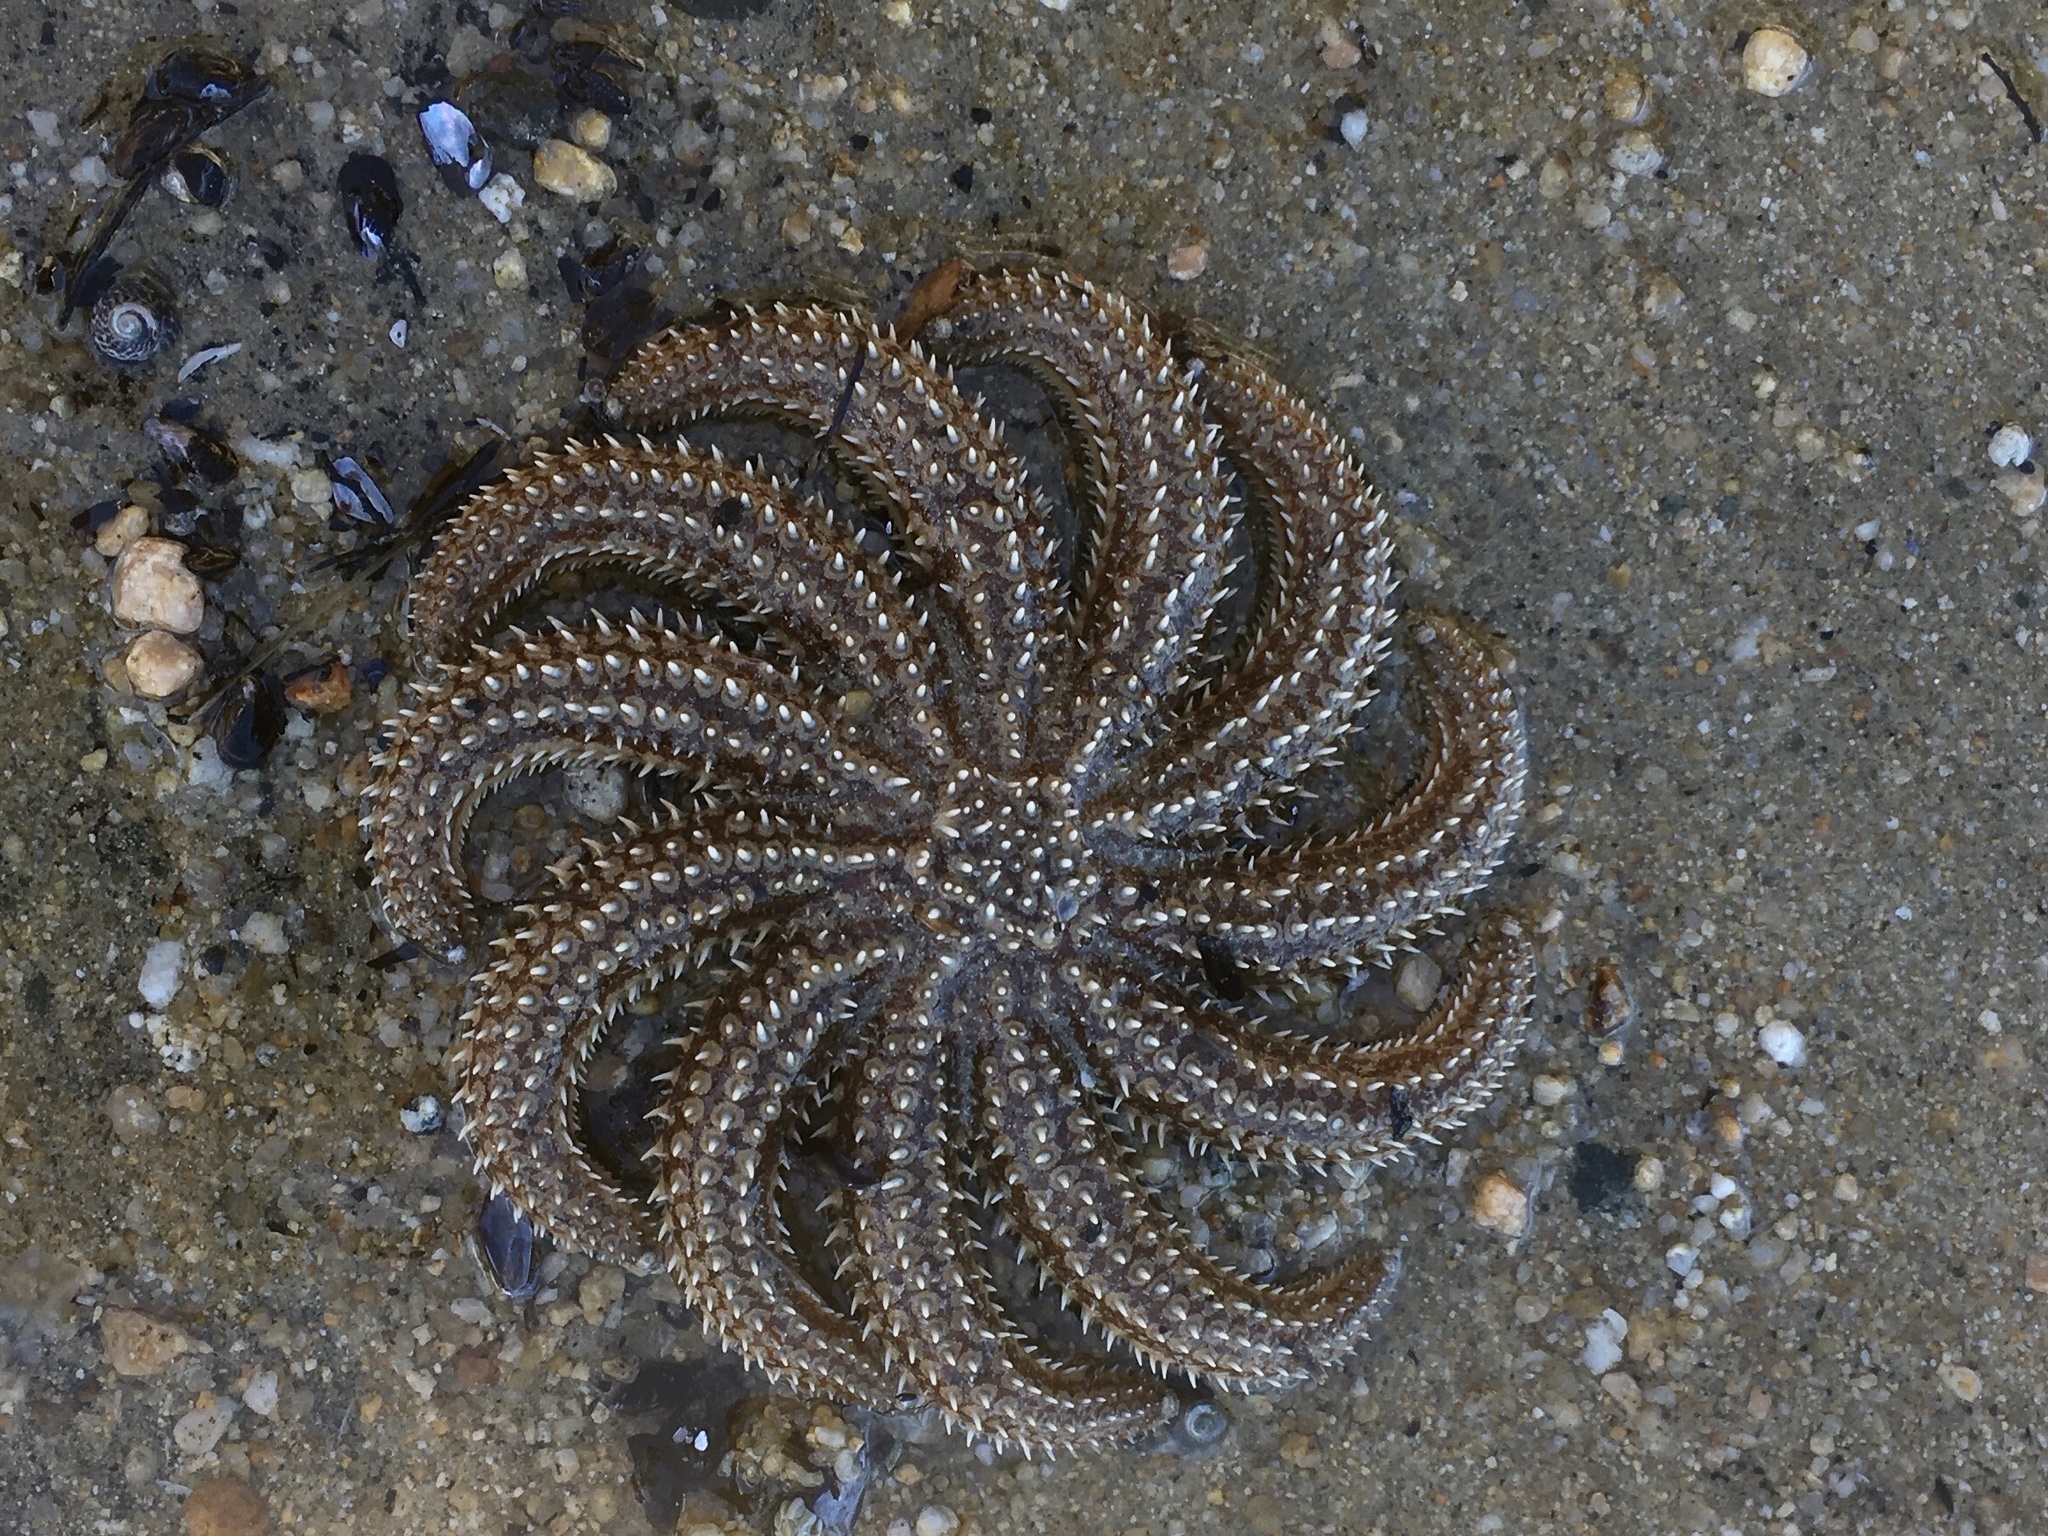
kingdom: Animalia
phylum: Echinodermata
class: Asteroidea
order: Forcipulatida
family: Asteriidae
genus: Coscinasterias
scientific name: Coscinasterias muricata
